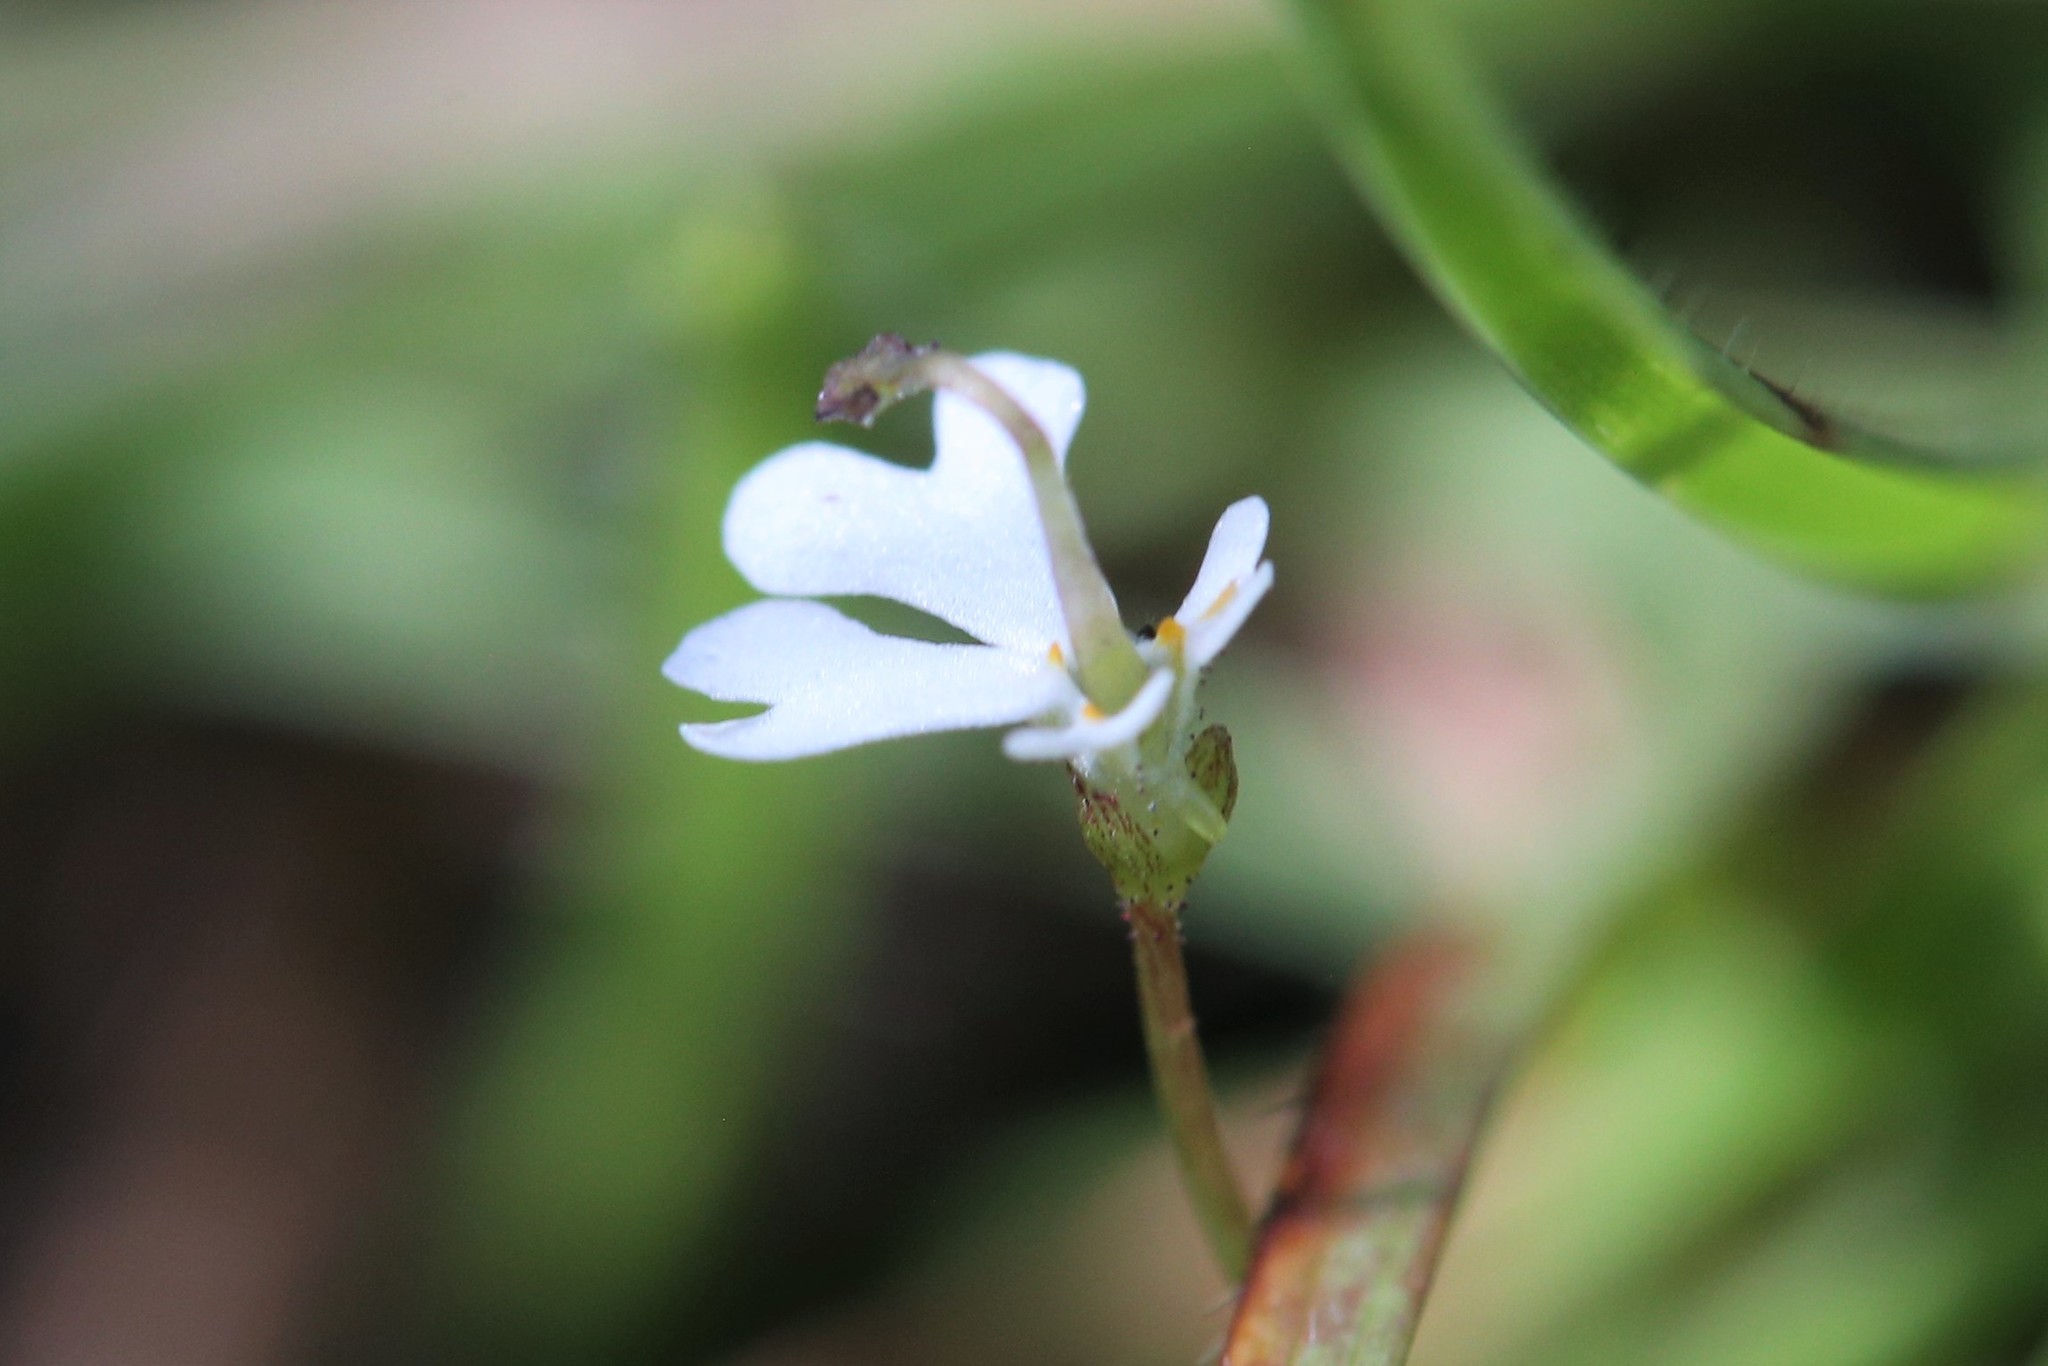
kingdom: Plantae
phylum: Tracheophyta
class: Magnoliopsida
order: Asterales
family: Stylidiaceae
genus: Stylidium
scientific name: Stylidium capillare
